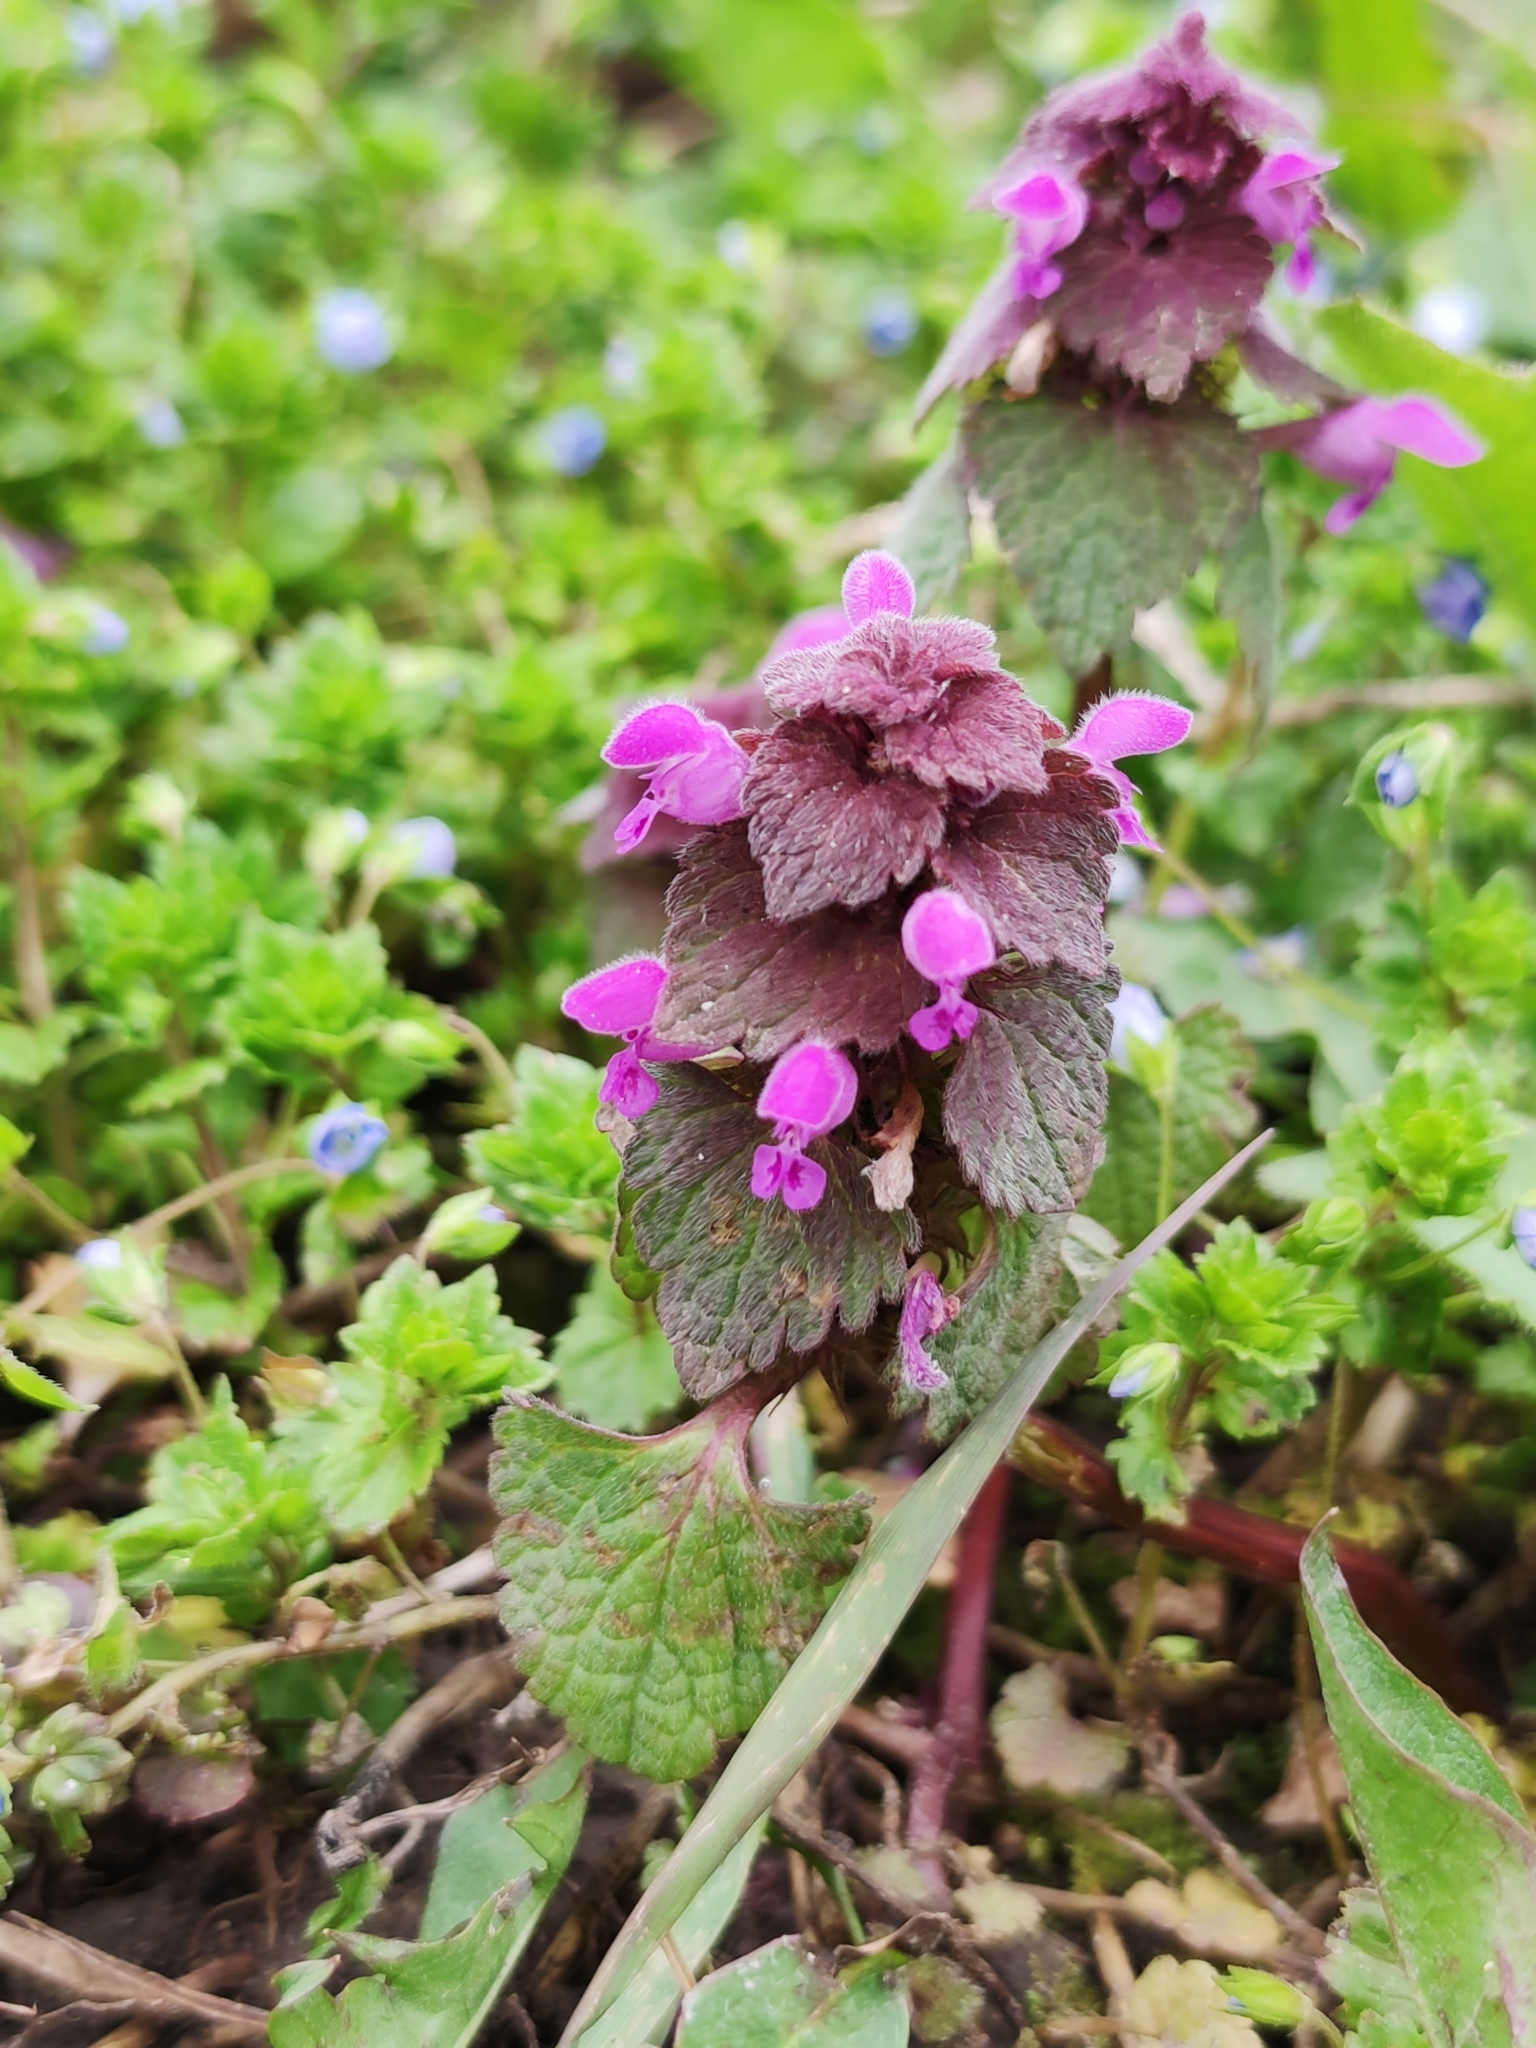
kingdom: Plantae
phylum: Tracheophyta
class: Magnoliopsida
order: Lamiales
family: Lamiaceae
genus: Lamium
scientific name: Lamium purpureum
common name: Red dead-nettle
